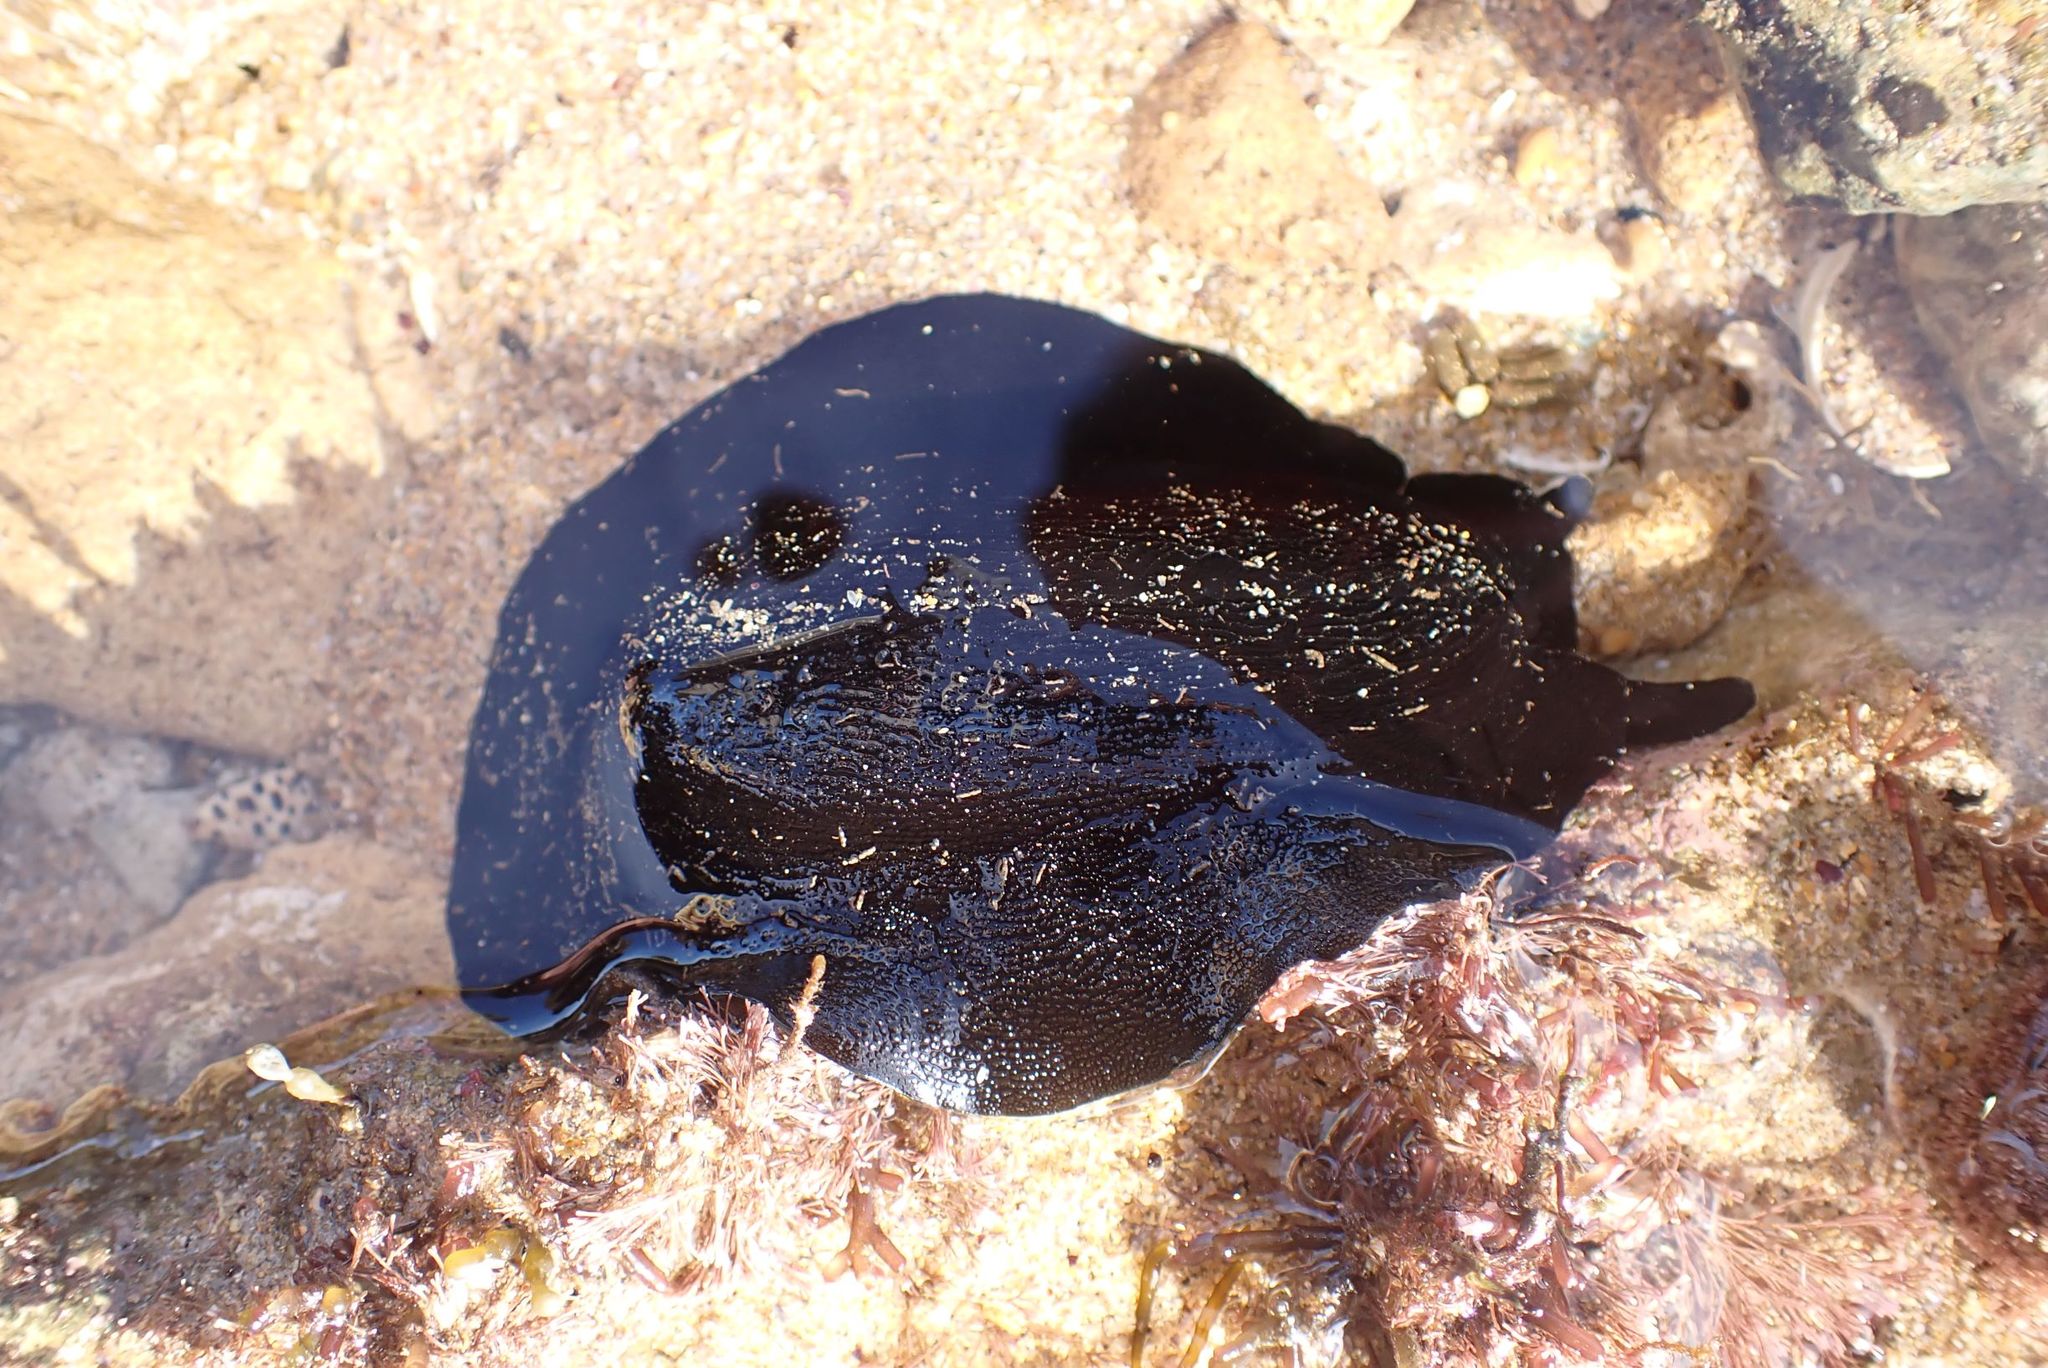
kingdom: Animalia
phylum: Mollusca
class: Gastropoda
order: Lepetellida
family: Fissurellidae
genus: Scutus
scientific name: Scutus antipodes
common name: Duckbill shell
